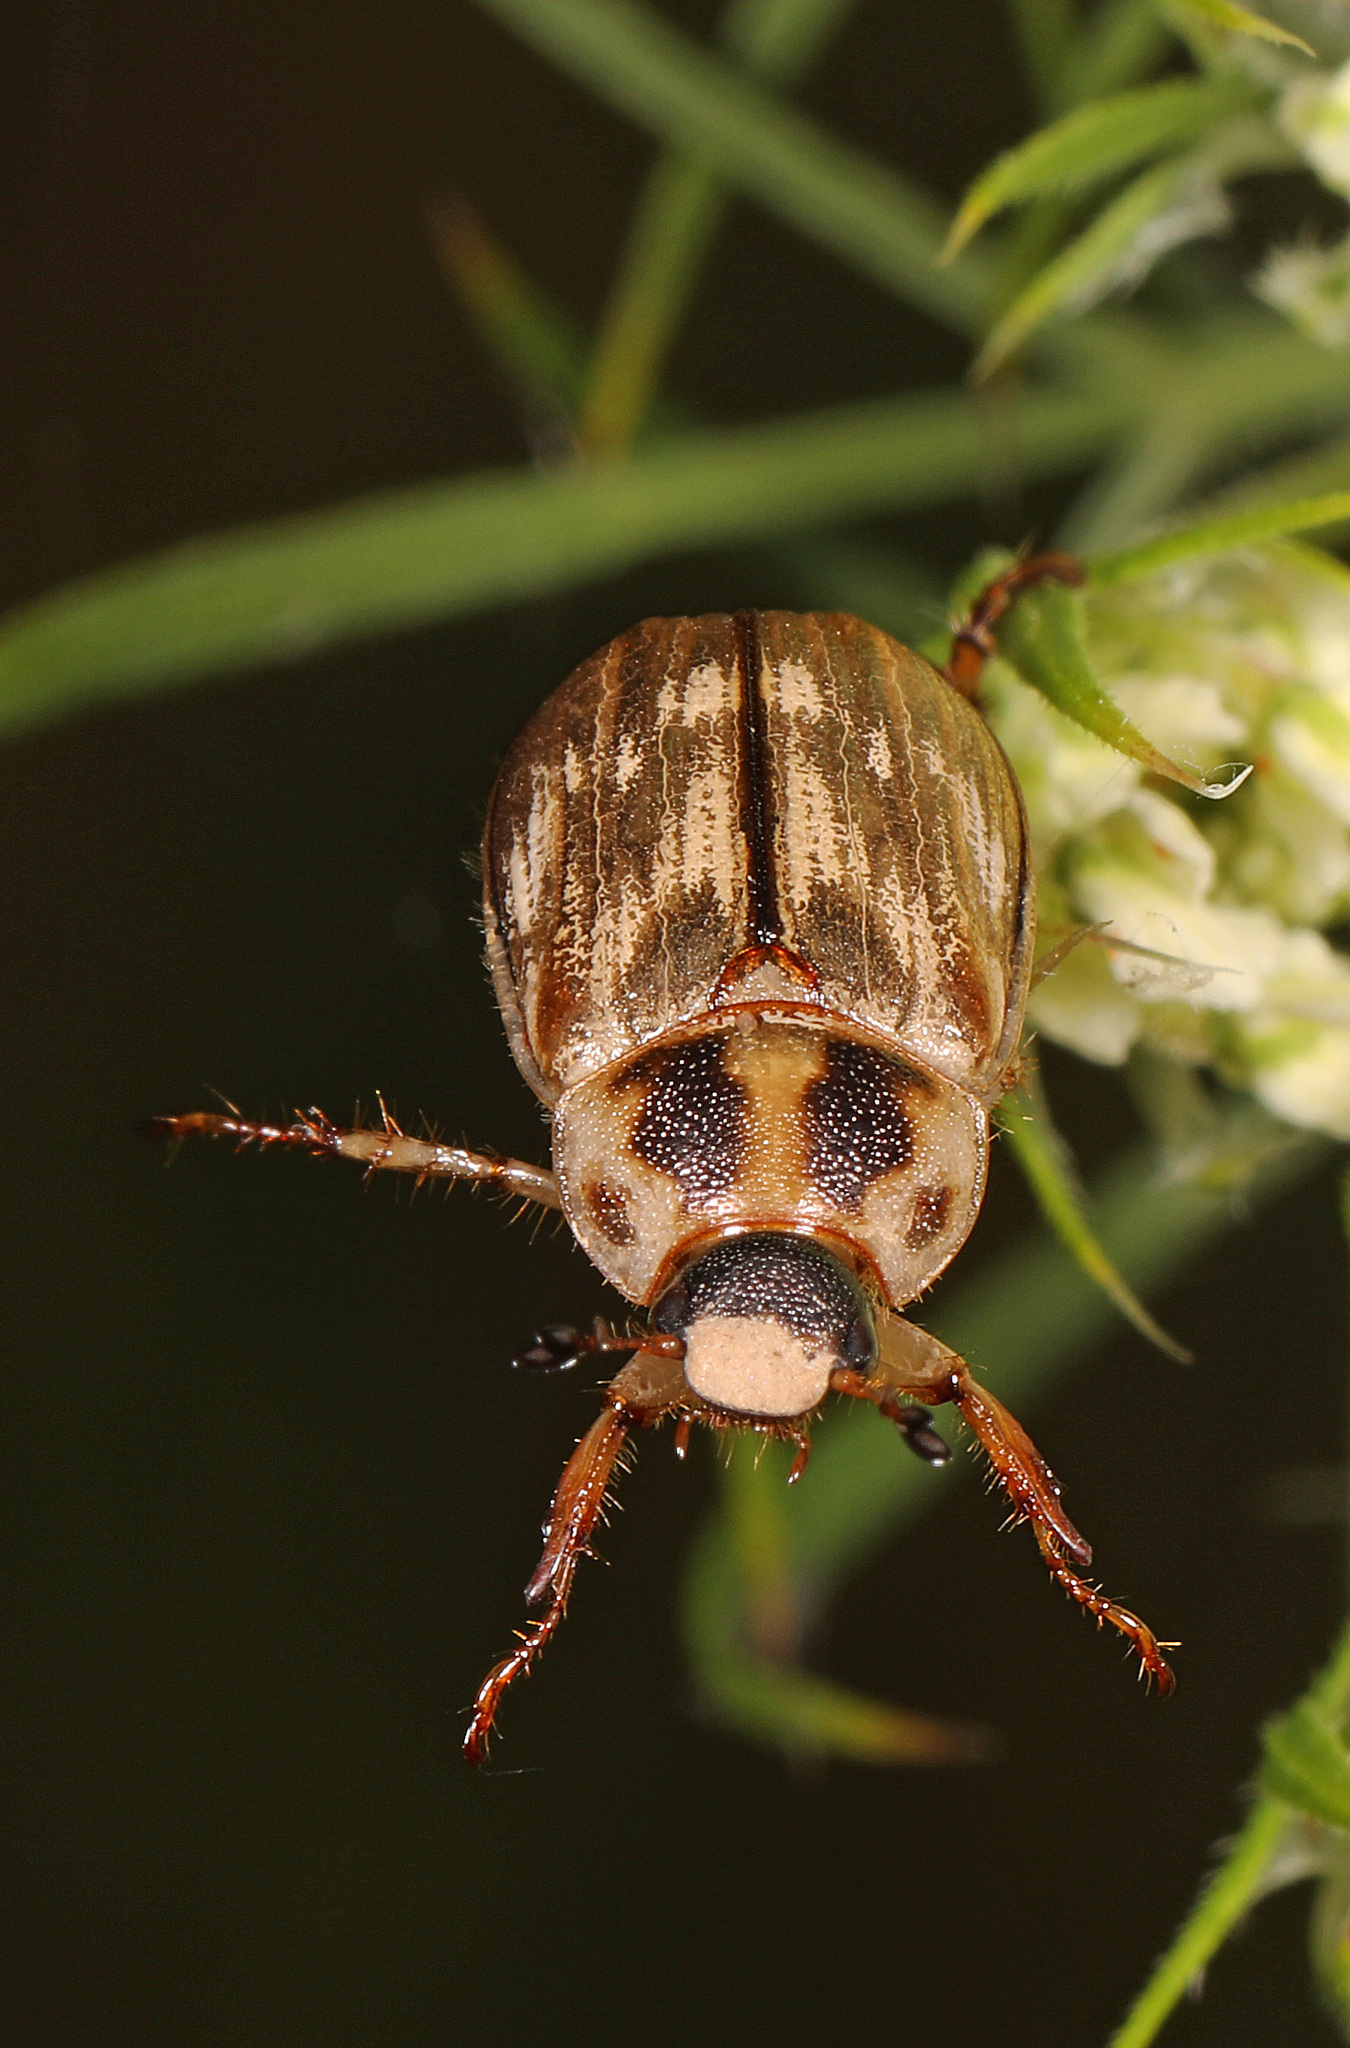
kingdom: Animalia
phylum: Arthropoda
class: Insecta
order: Coleoptera
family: Scarabaeidae
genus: Exomala
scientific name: Exomala orientalis
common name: Oriental beetle
